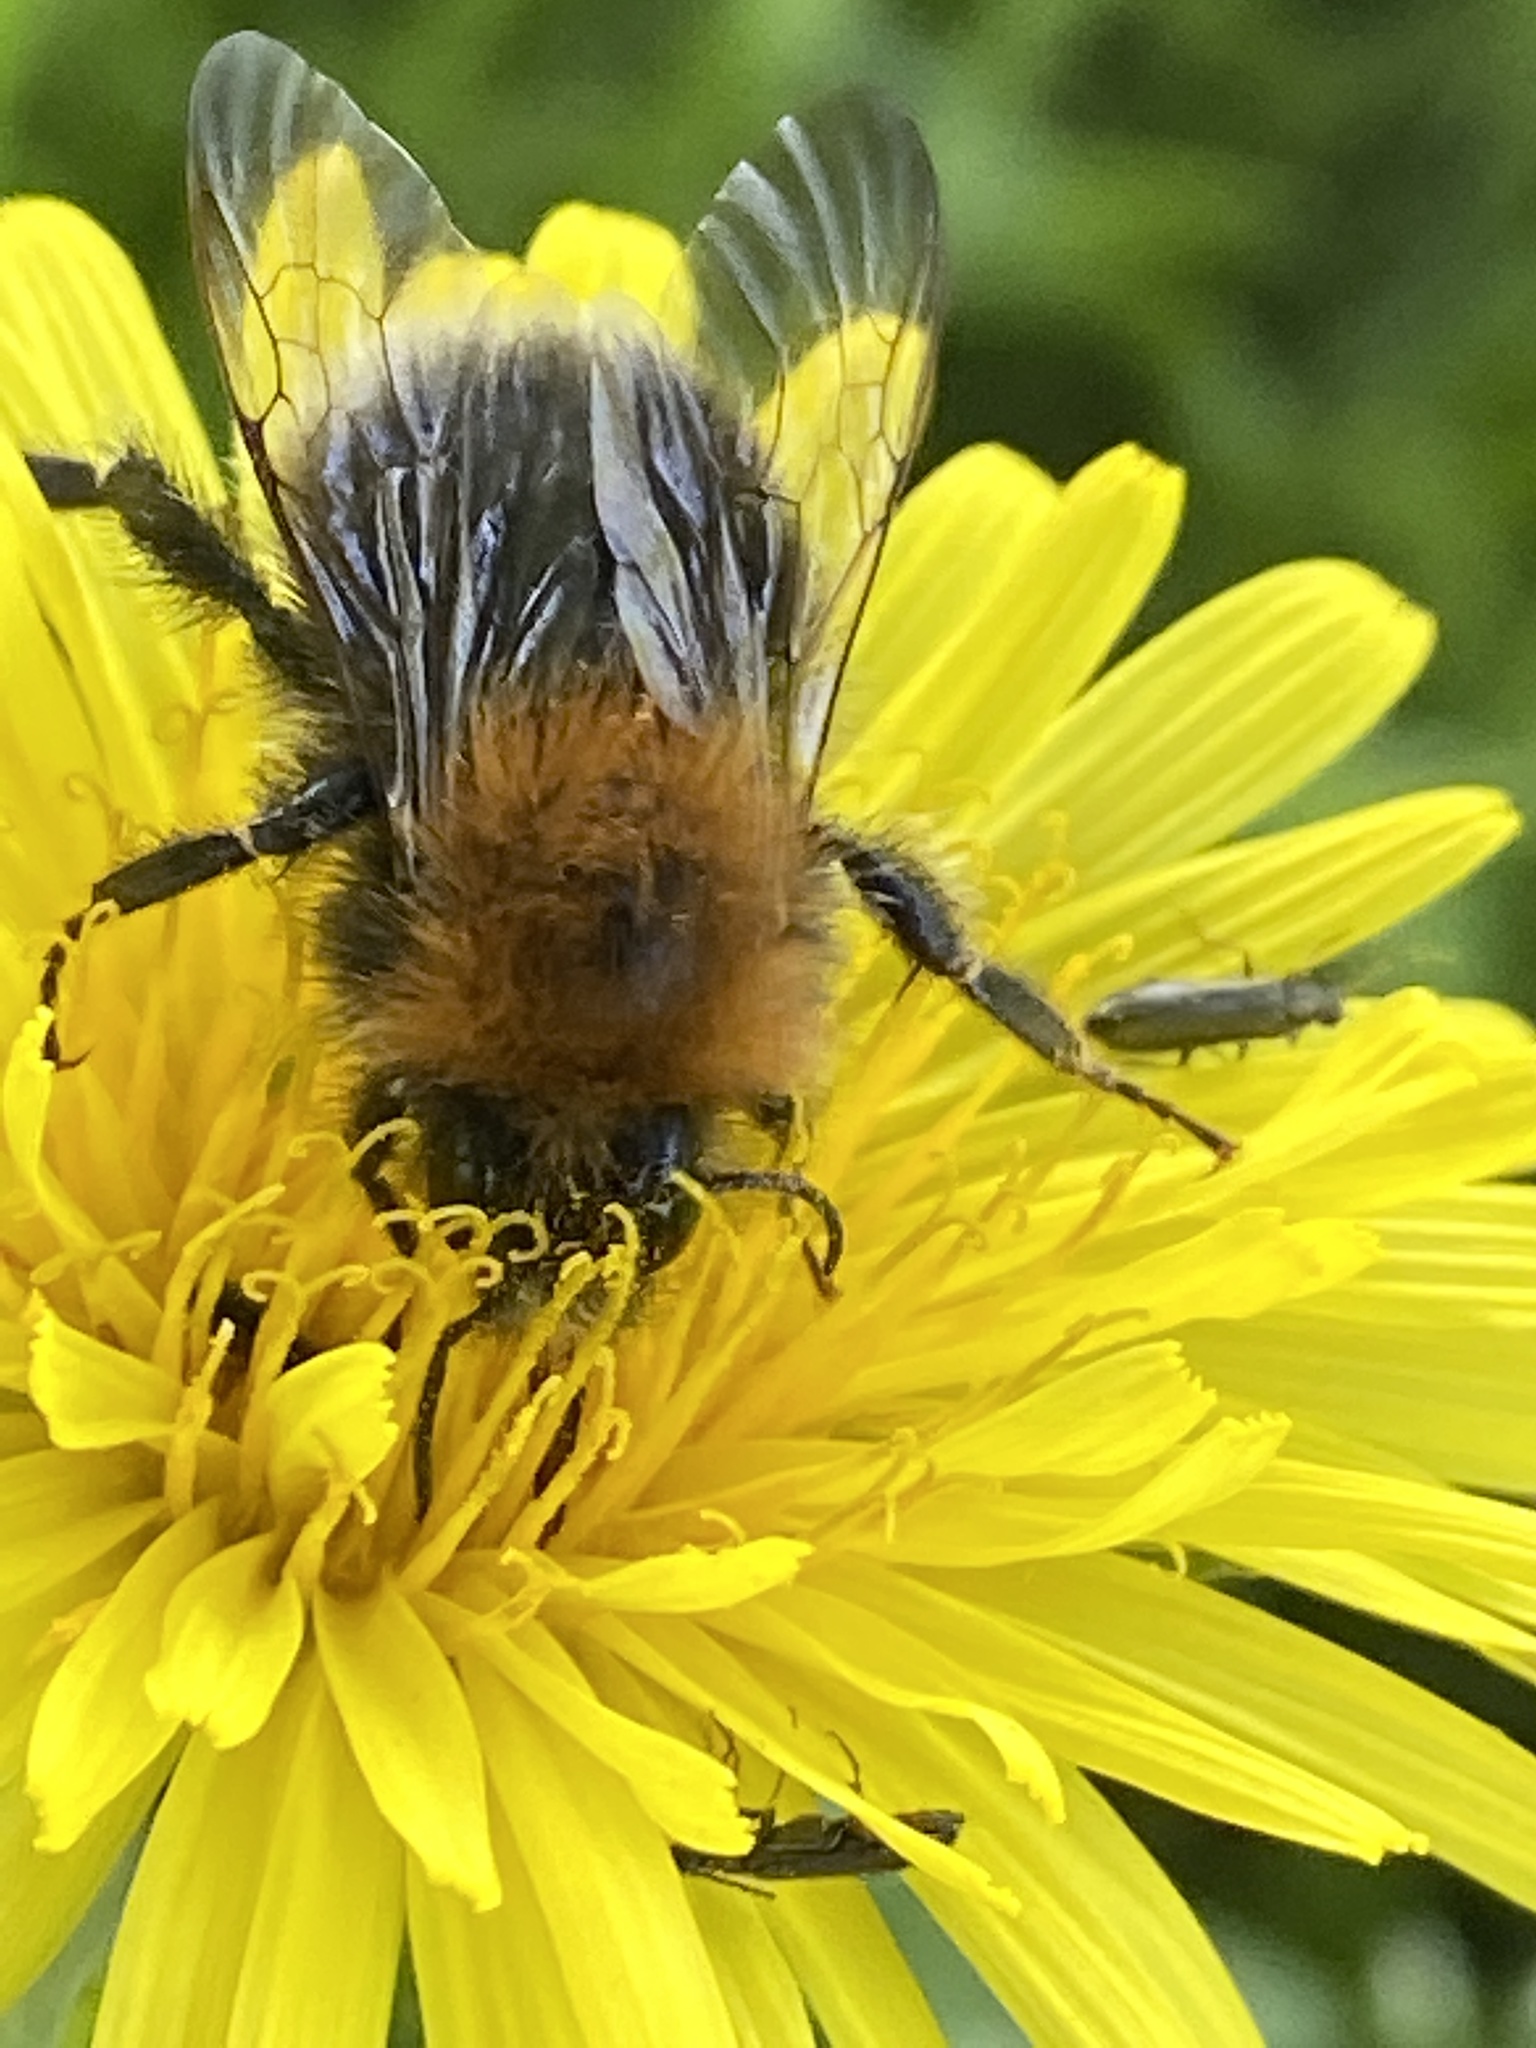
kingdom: Animalia
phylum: Arthropoda
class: Insecta
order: Hymenoptera
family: Apidae
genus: Bombus
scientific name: Bombus hypnorum
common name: New garden bumblebee
